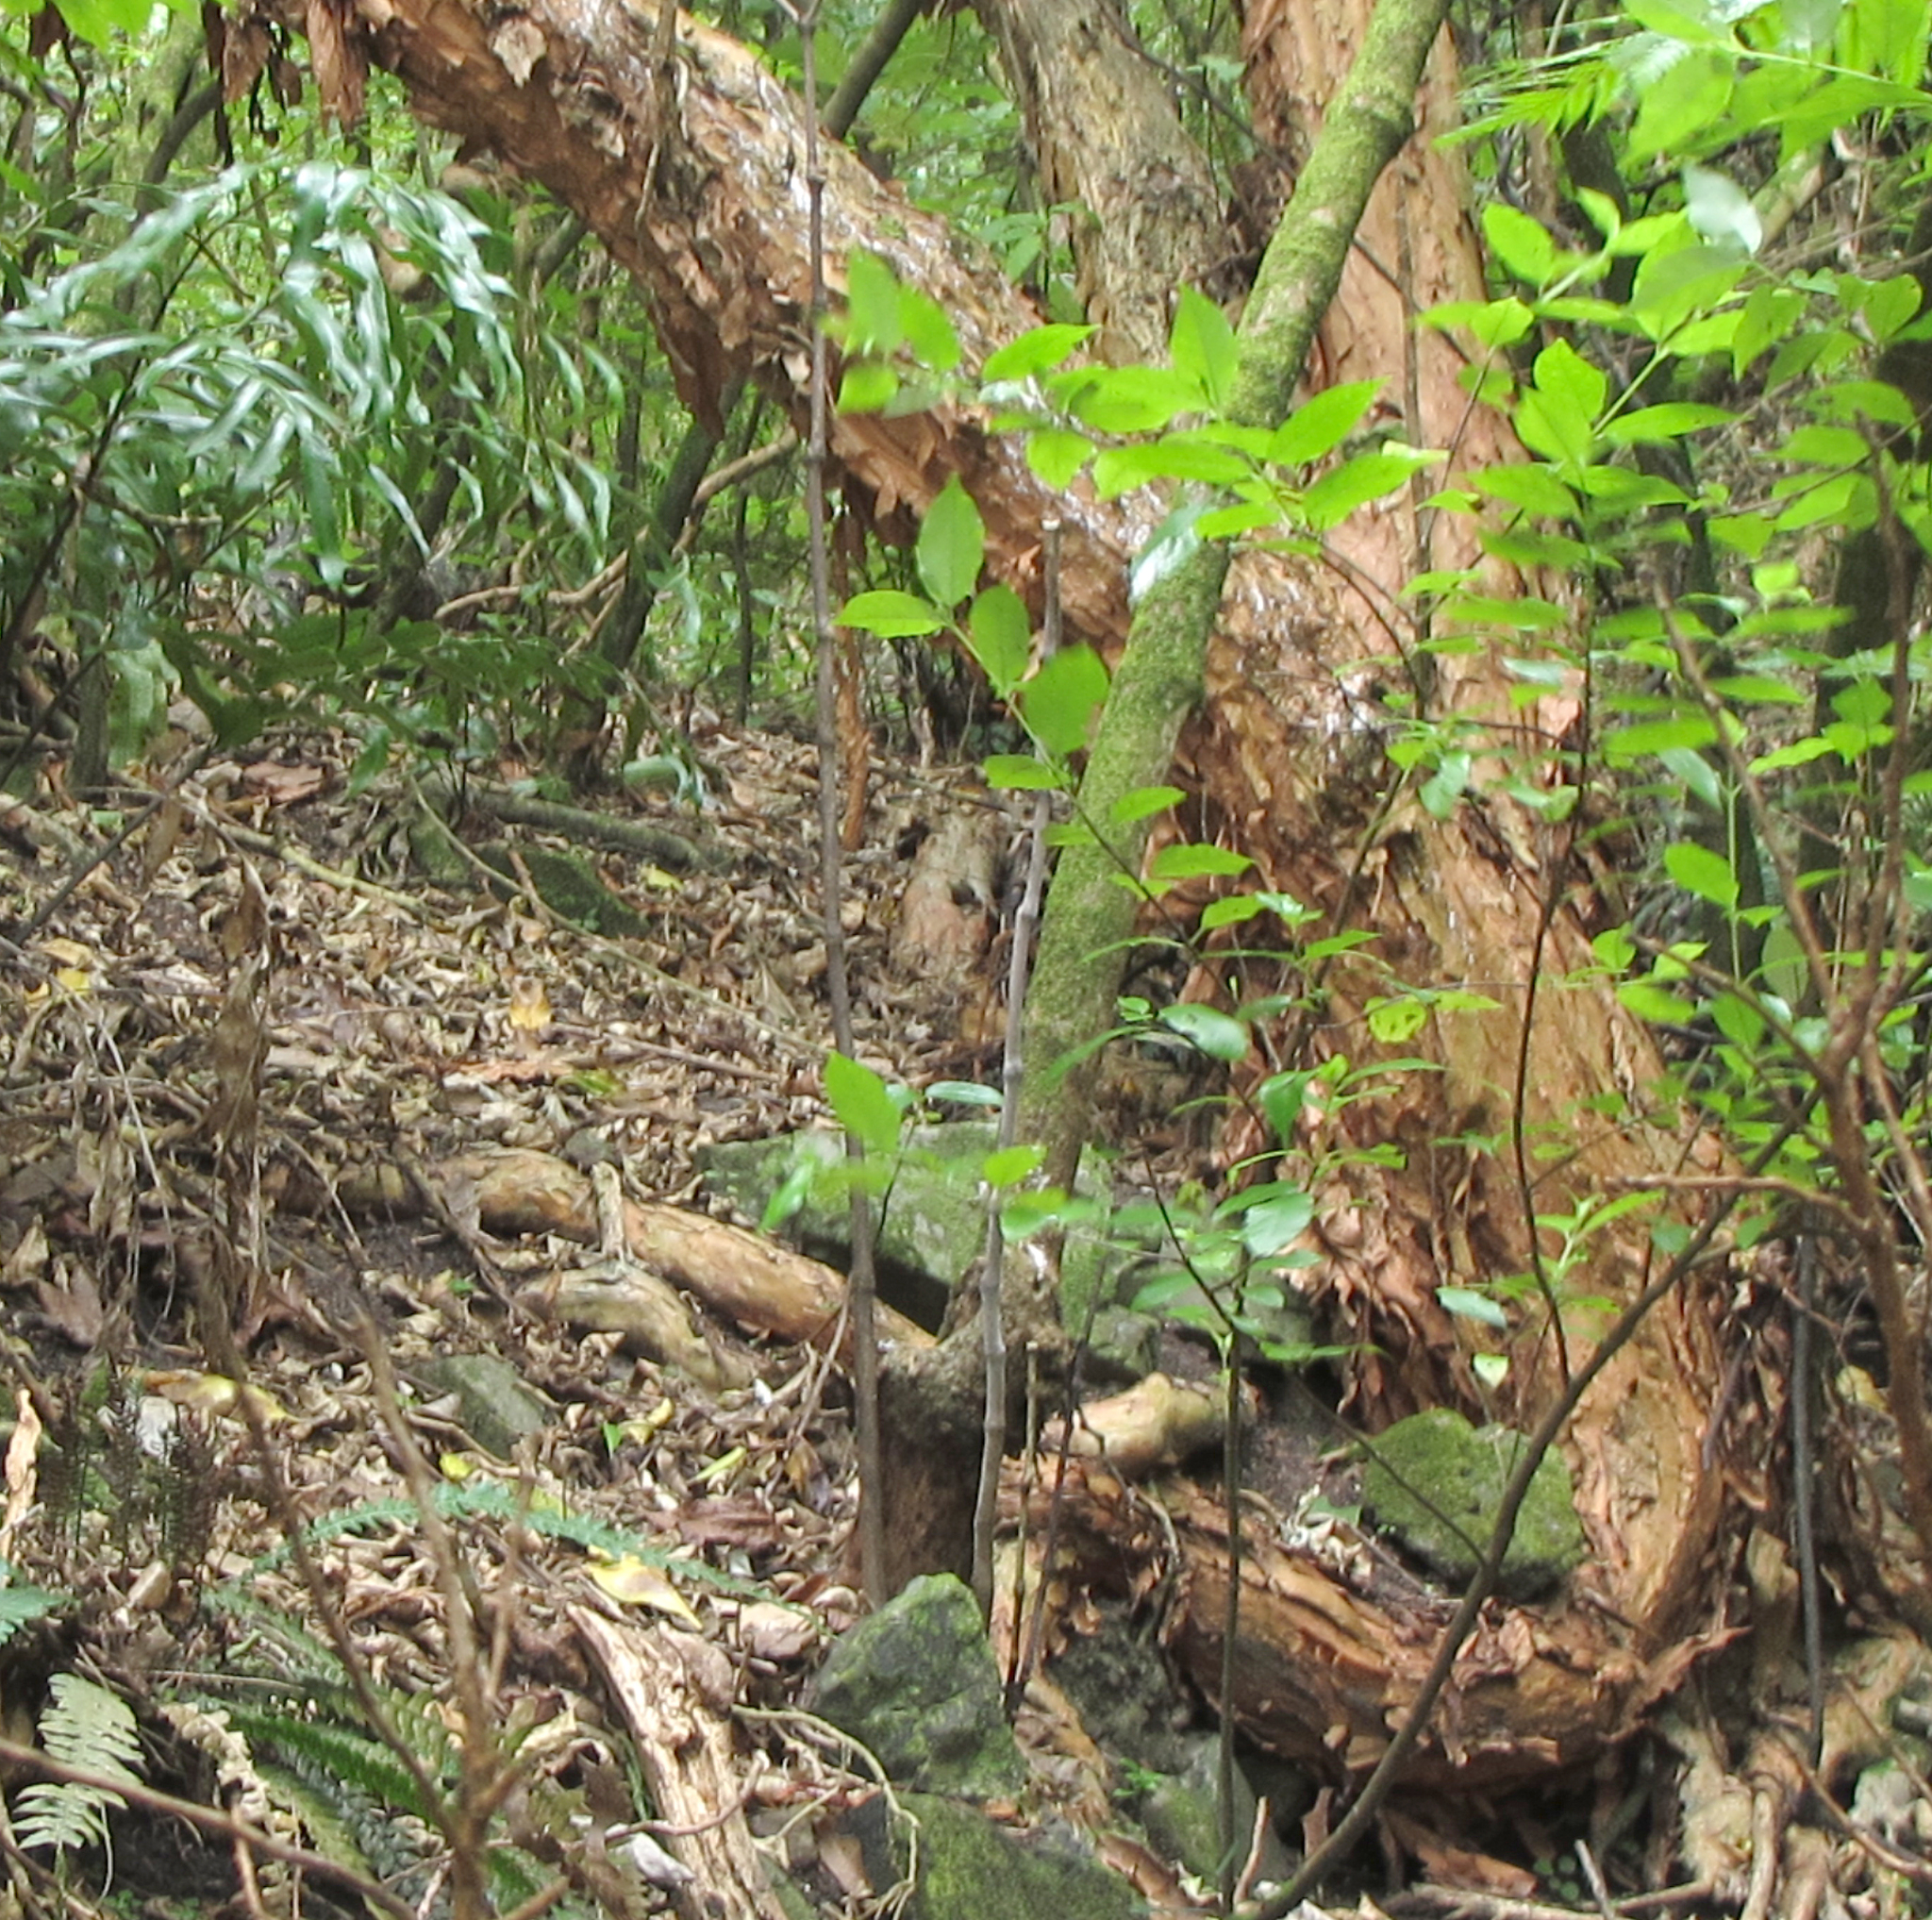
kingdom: Plantae
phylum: Tracheophyta
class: Magnoliopsida
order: Myrtales
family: Onagraceae
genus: Fuchsia
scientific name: Fuchsia excorticata
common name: Tree fuchsia
